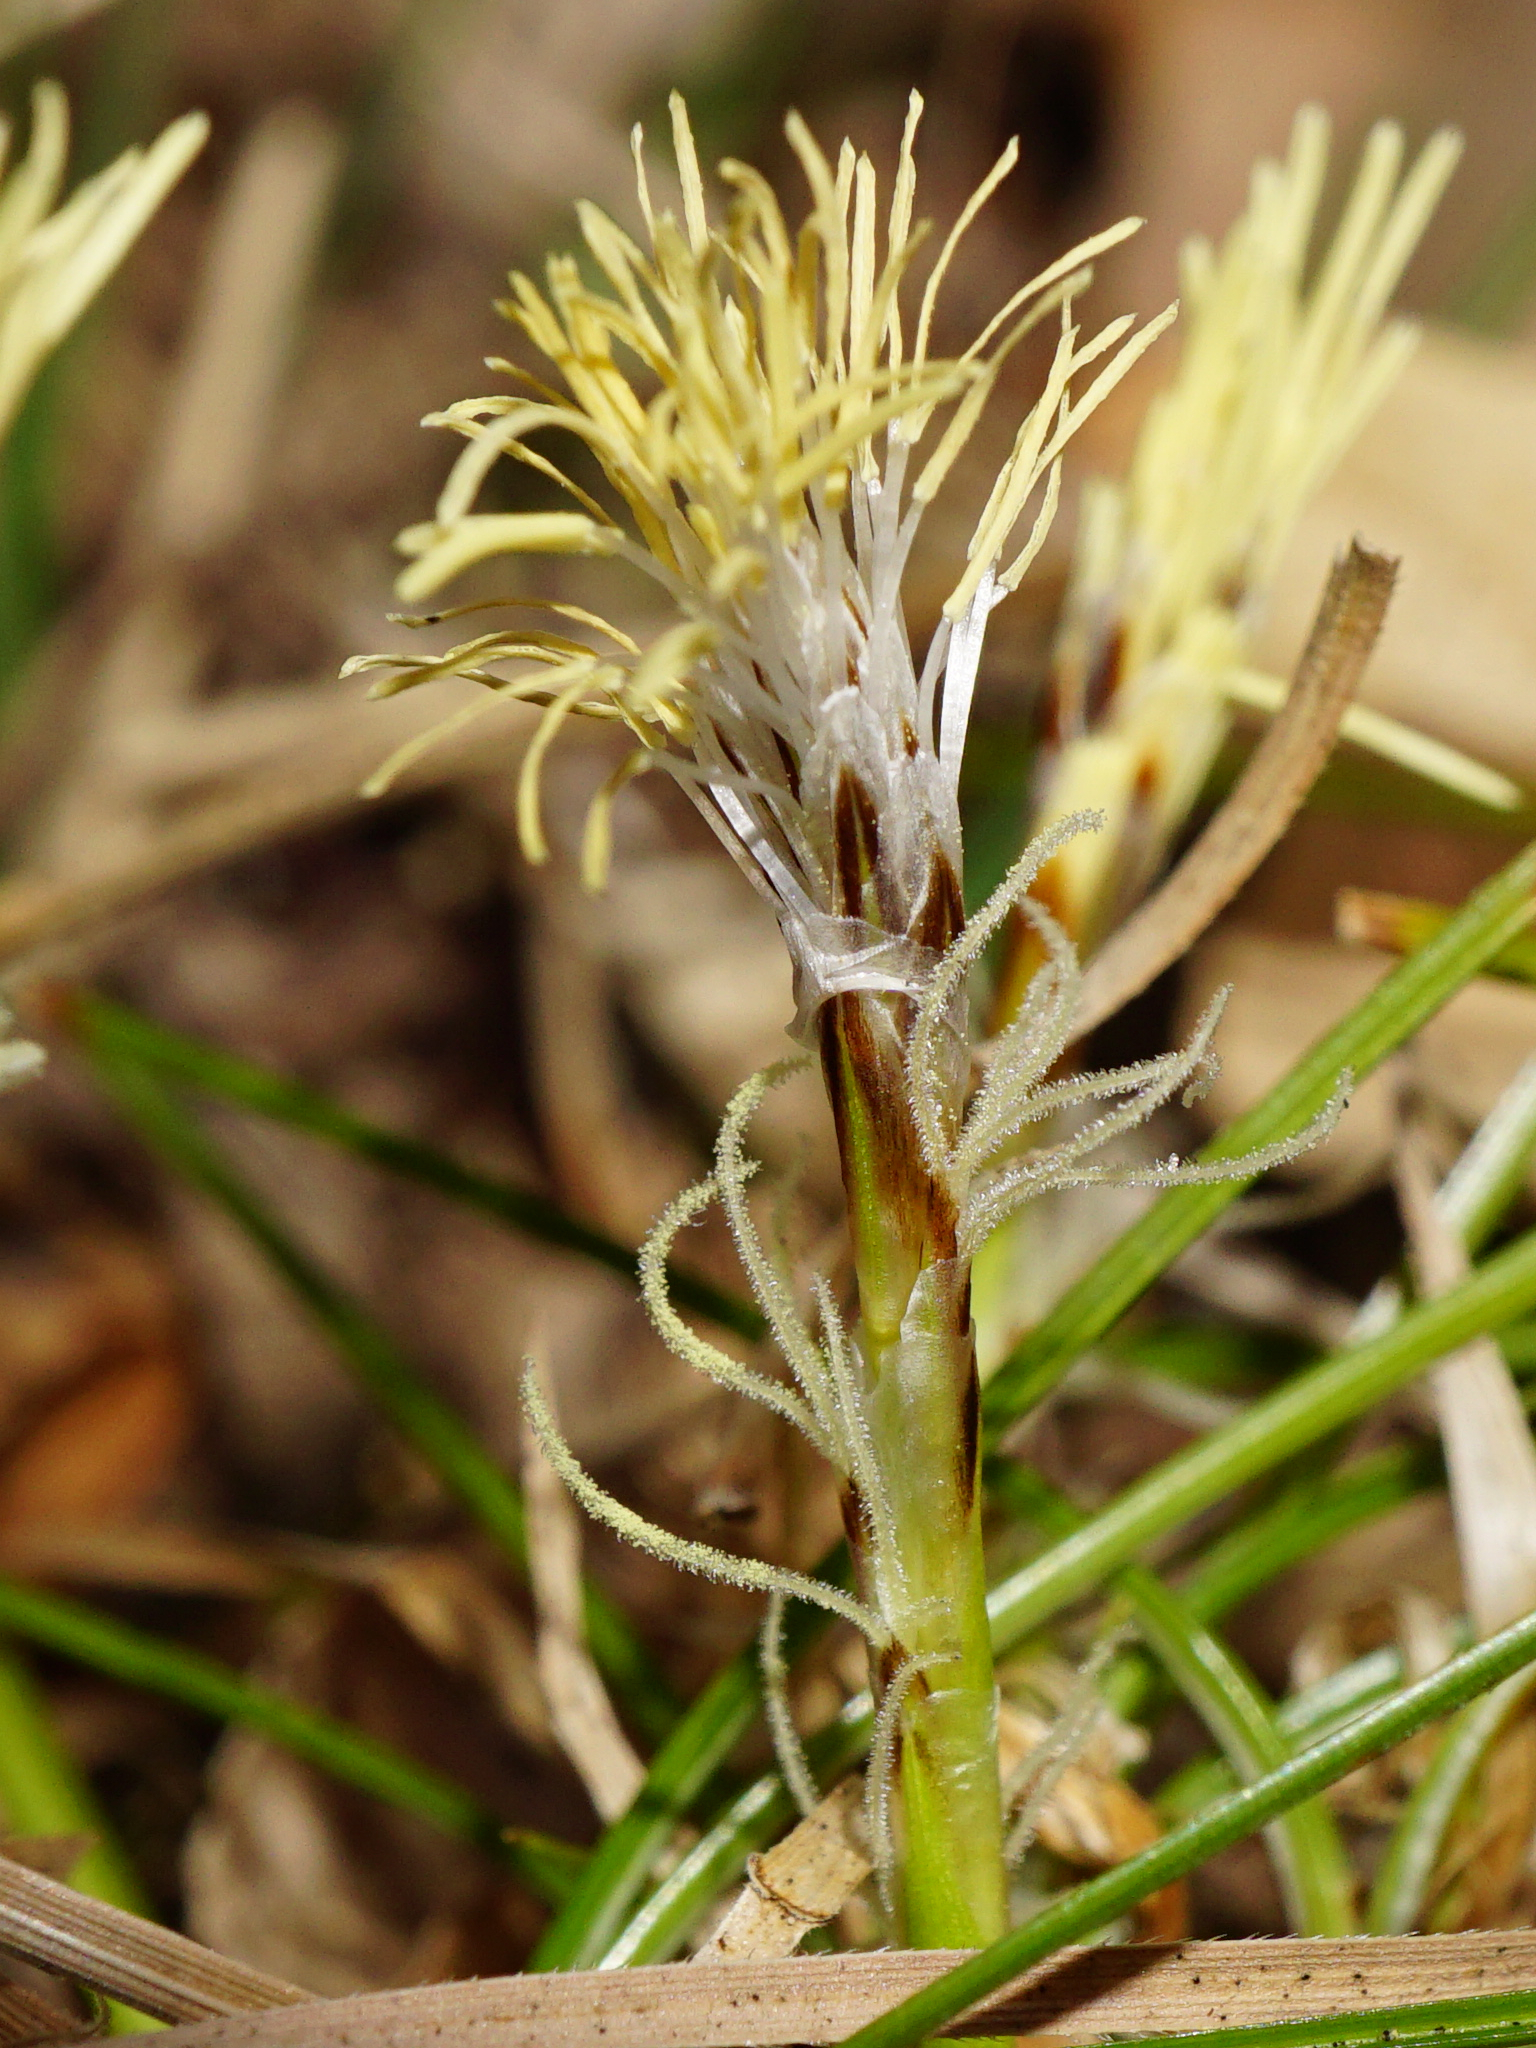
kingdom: Plantae
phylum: Tracheophyta
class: Liliopsida
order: Poales
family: Cyperaceae
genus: Carex
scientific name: Carex humilis
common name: Dwarf sedge
